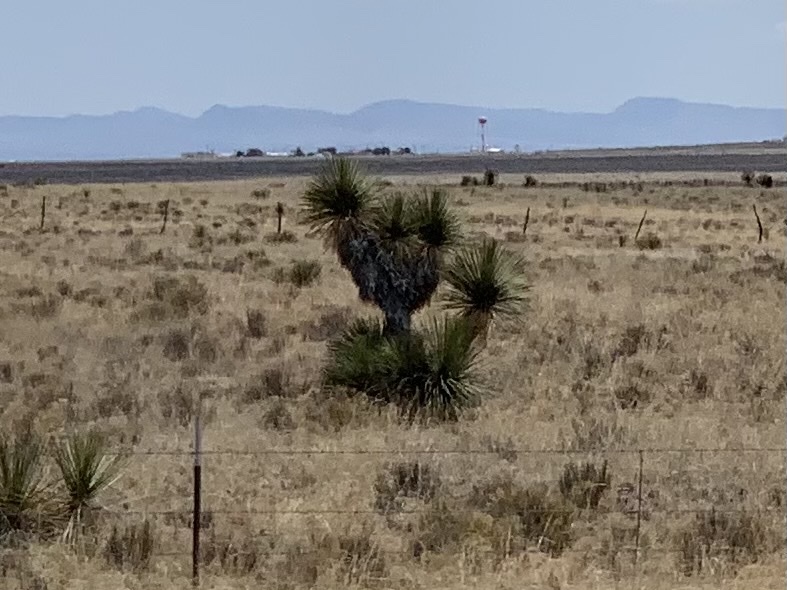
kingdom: Plantae
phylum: Tracheophyta
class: Liliopsida
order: Asparagales
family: Asparagaceae
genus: Yucca
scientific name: Yucca elata
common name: Palmella
